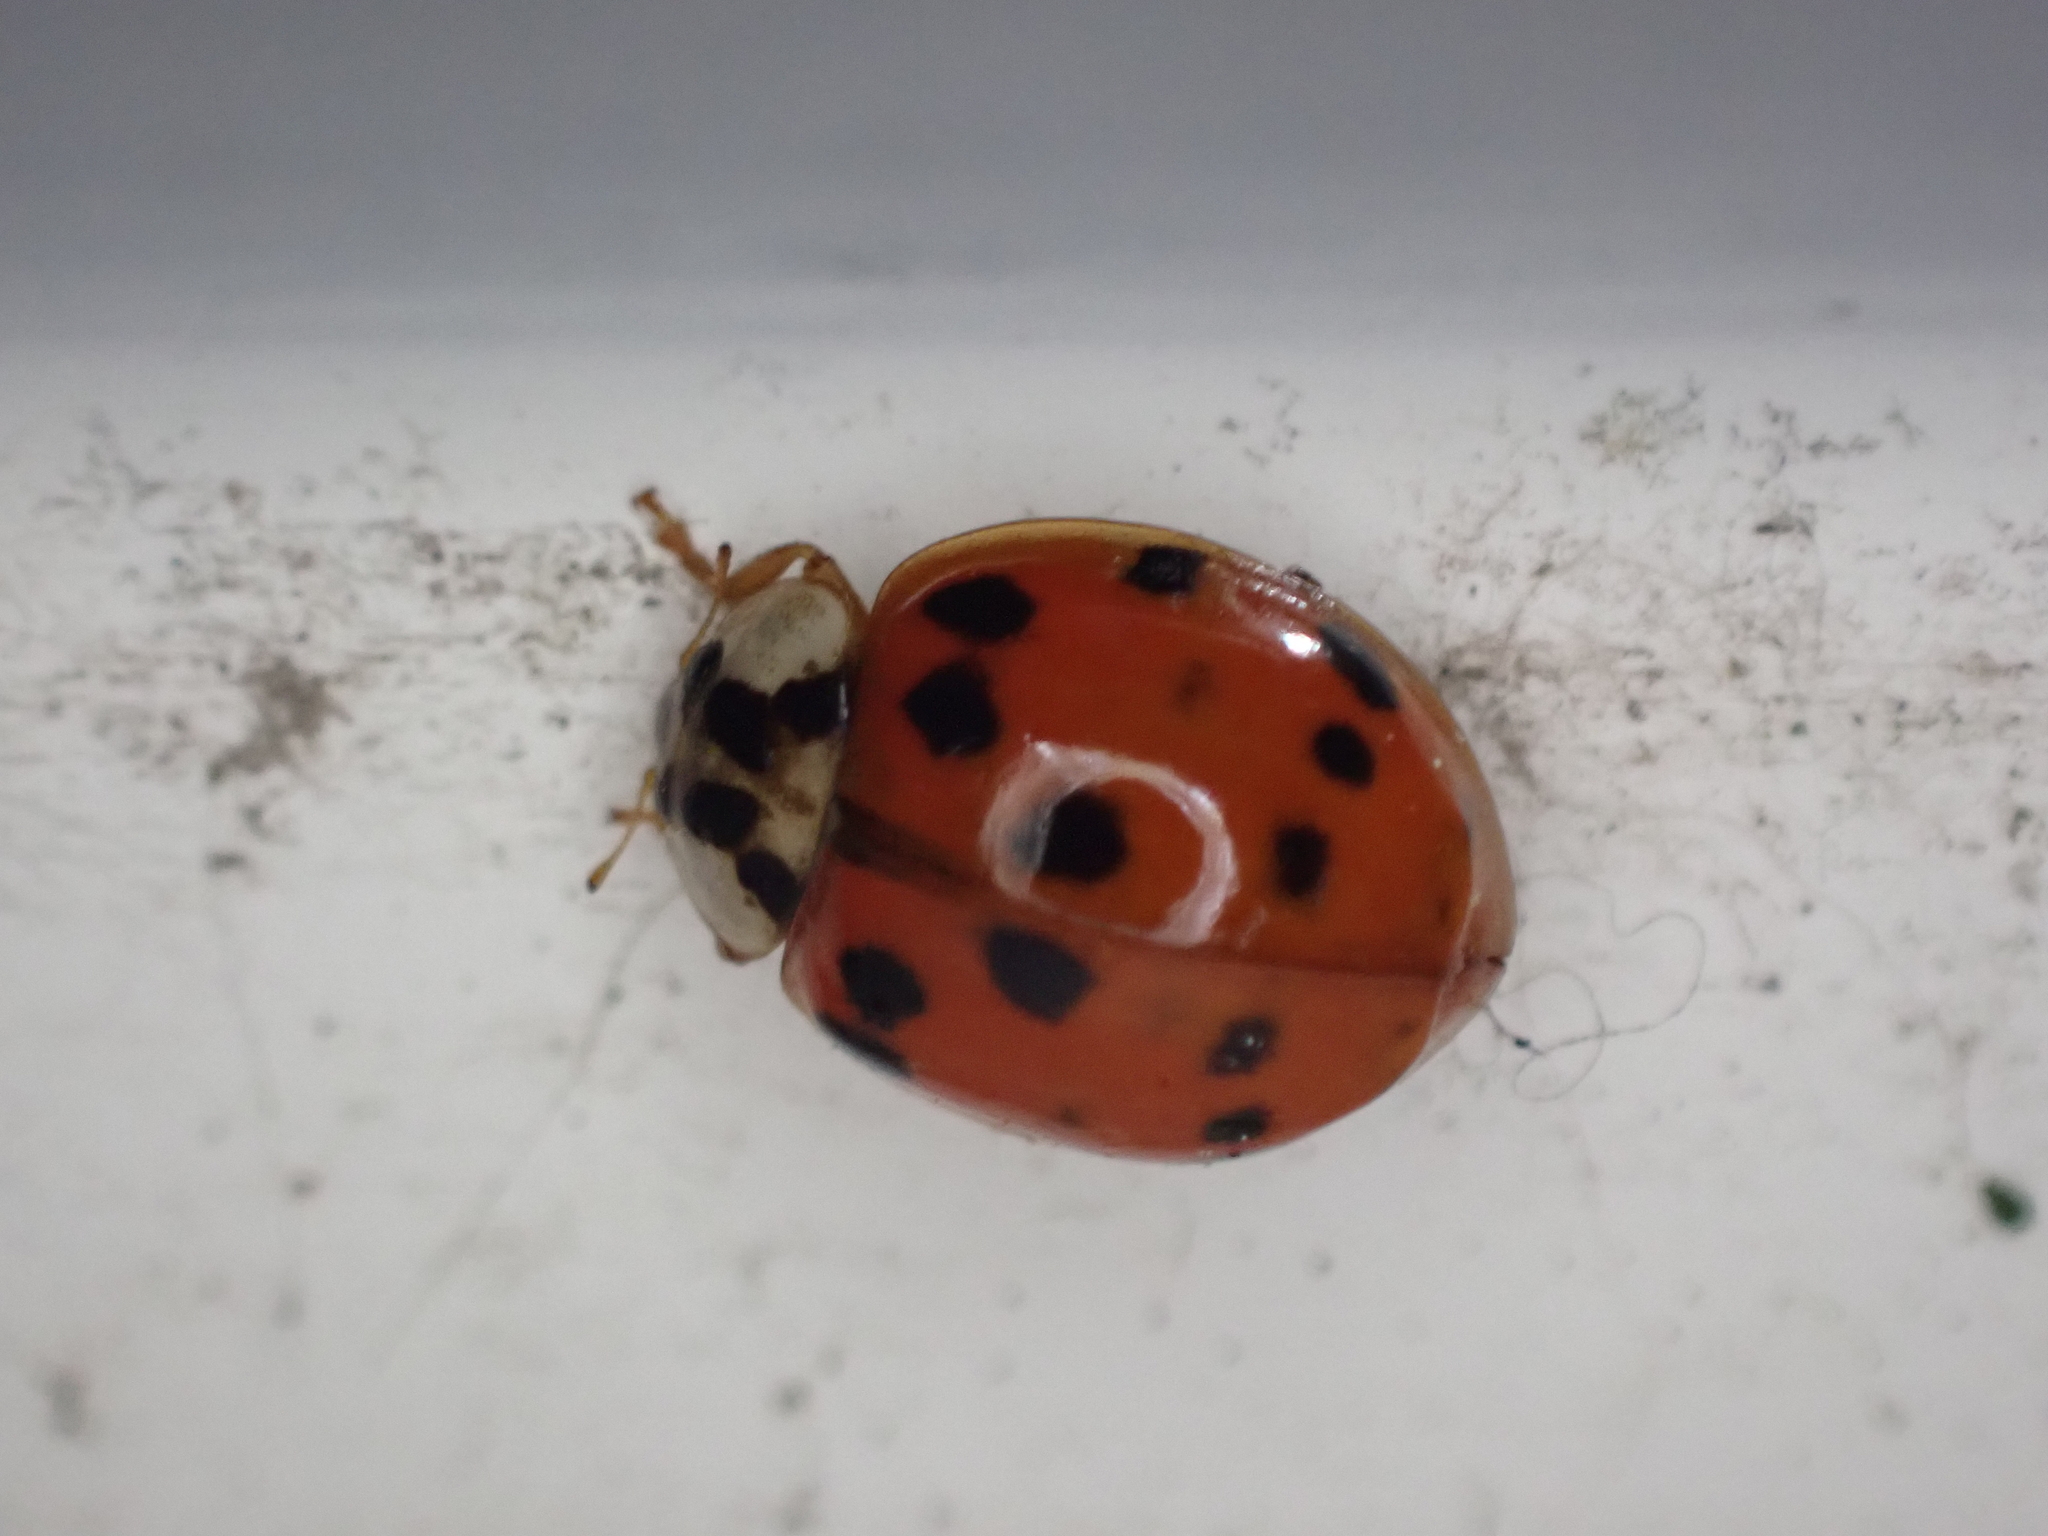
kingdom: Animalia
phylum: Arthropoda
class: Insecta
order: Coleoptera
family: Coccinellidae
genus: Harmonia
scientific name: Harmonia axyridis
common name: Harlequin ladybird
